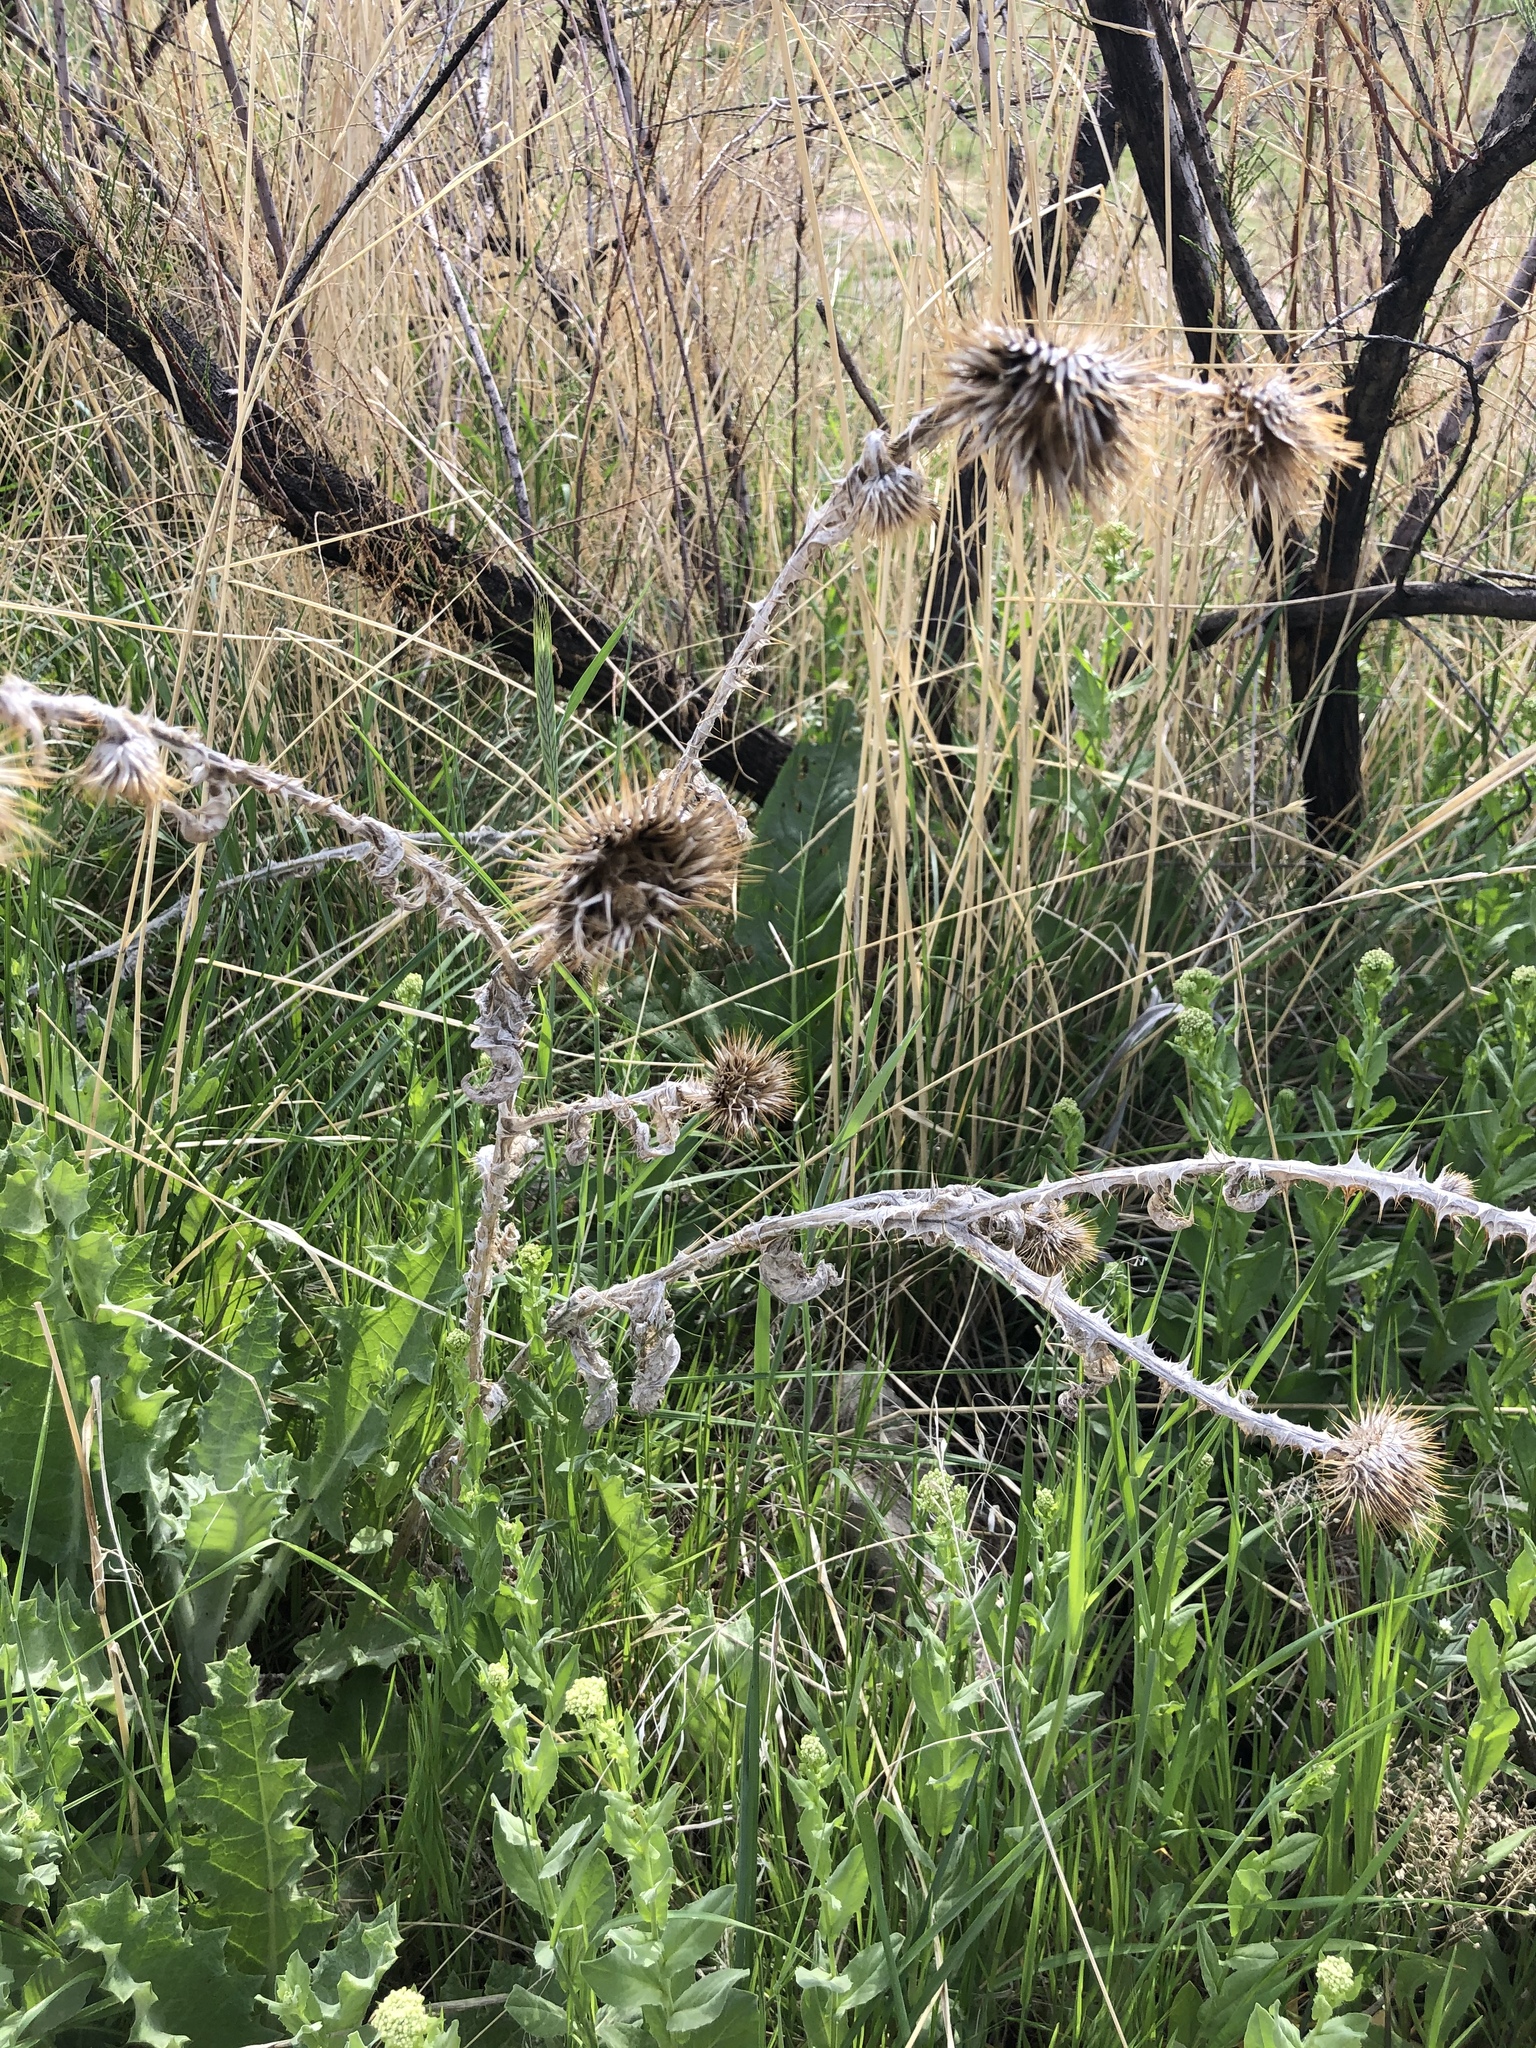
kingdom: Plantae
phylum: Tracheophyta
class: Magnoliopsida
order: Asterales
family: Asteraceae
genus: Cirsium
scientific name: Cirsium vulgare
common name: Bull thistle
